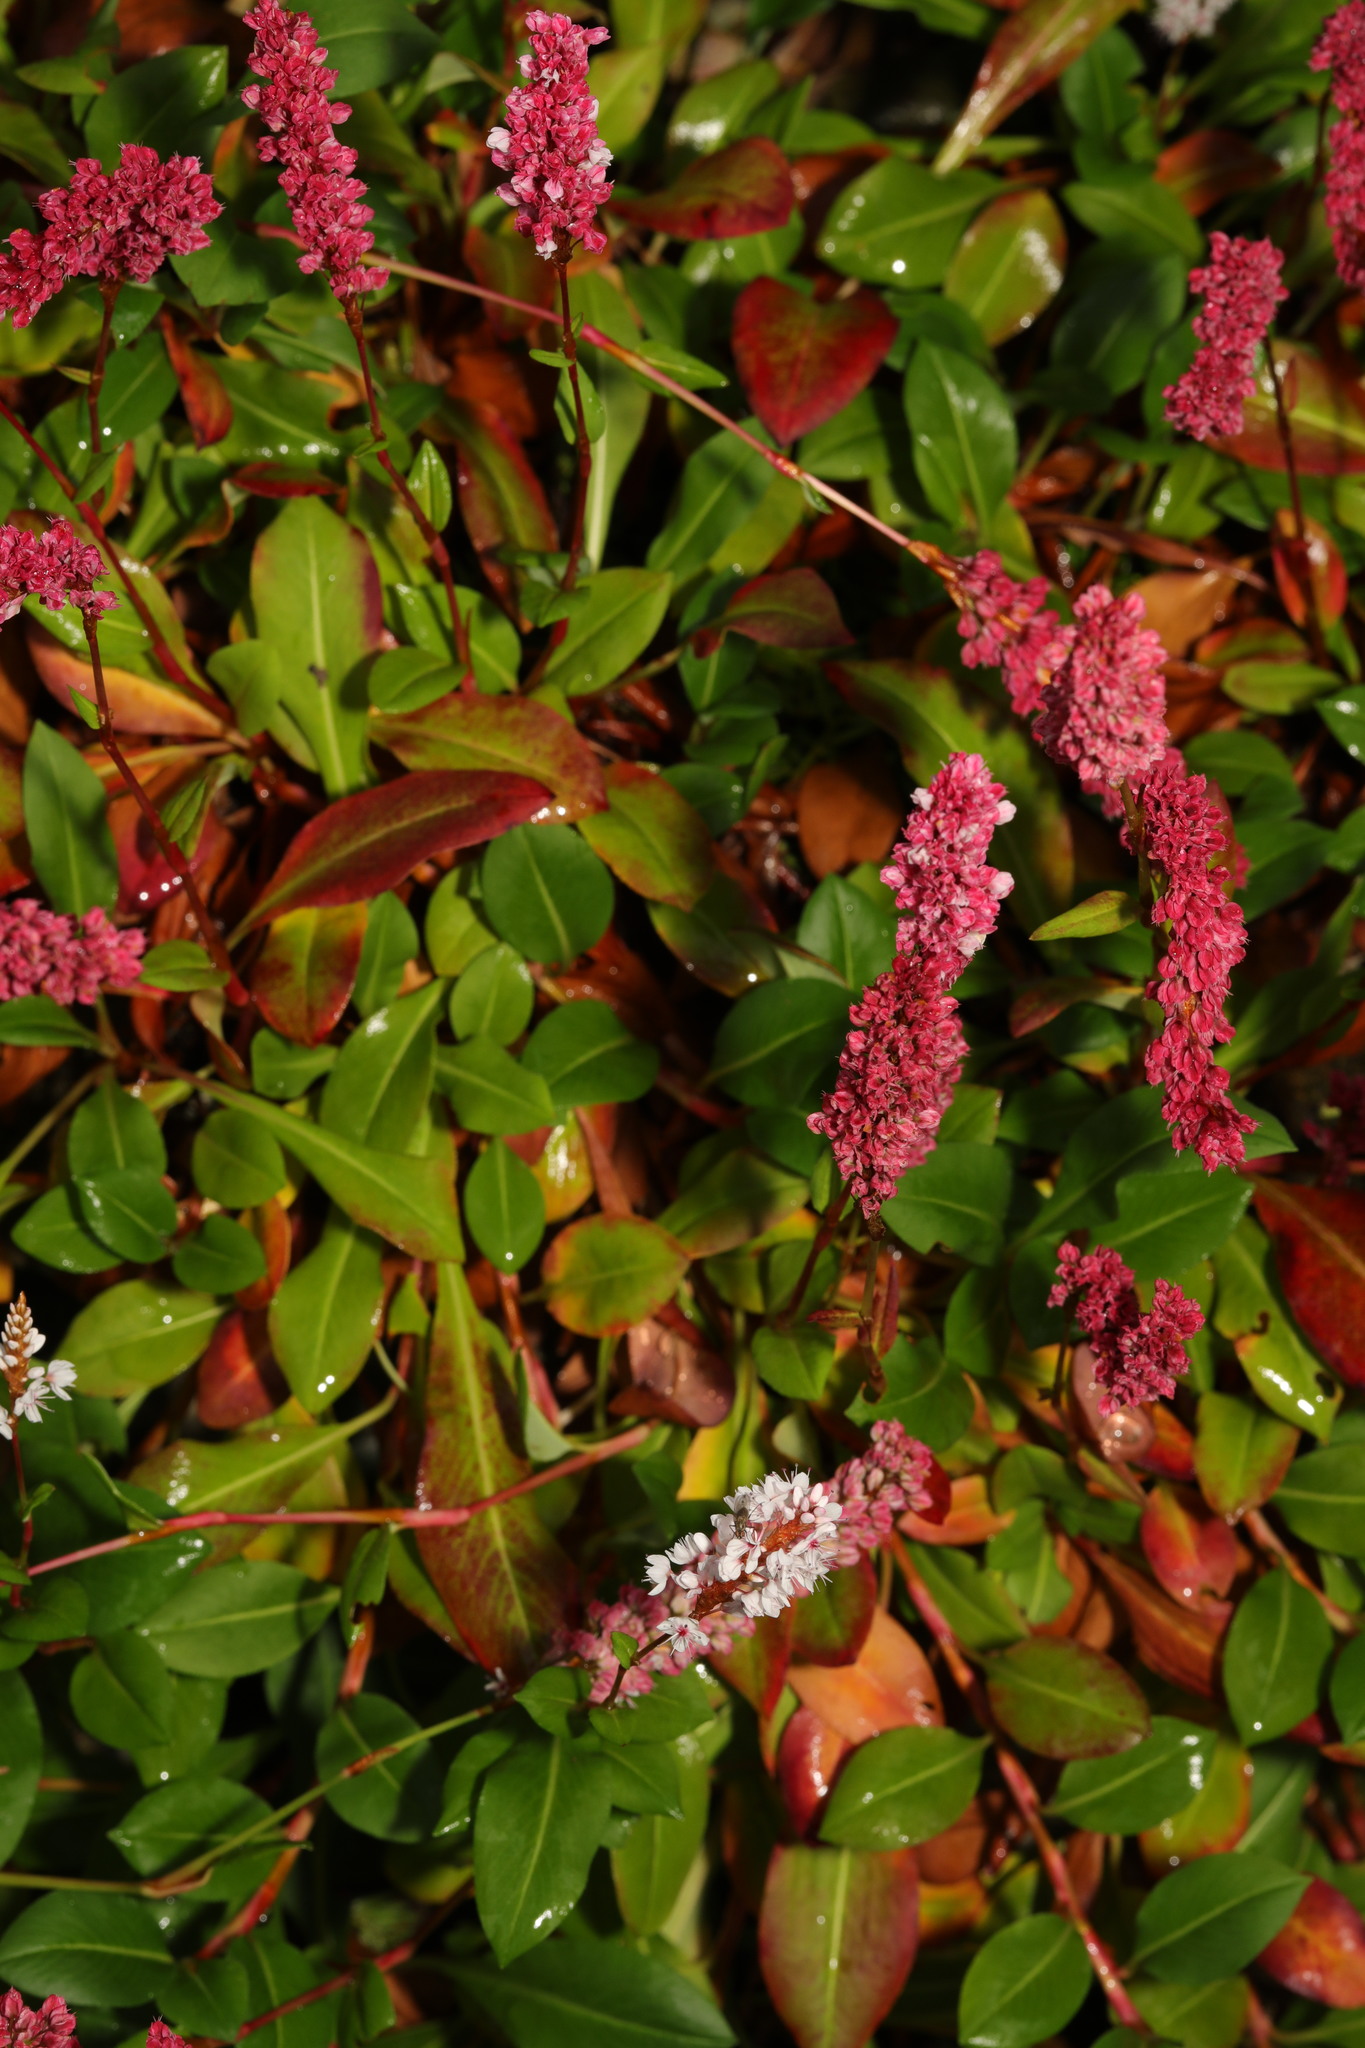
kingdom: Plantae
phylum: Tracheophyta
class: Magnoliopsida
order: Caryophyllales
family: Polygonaceae
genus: Bistorta
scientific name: Bistorta affinis
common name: Himalayan fleeceflower
